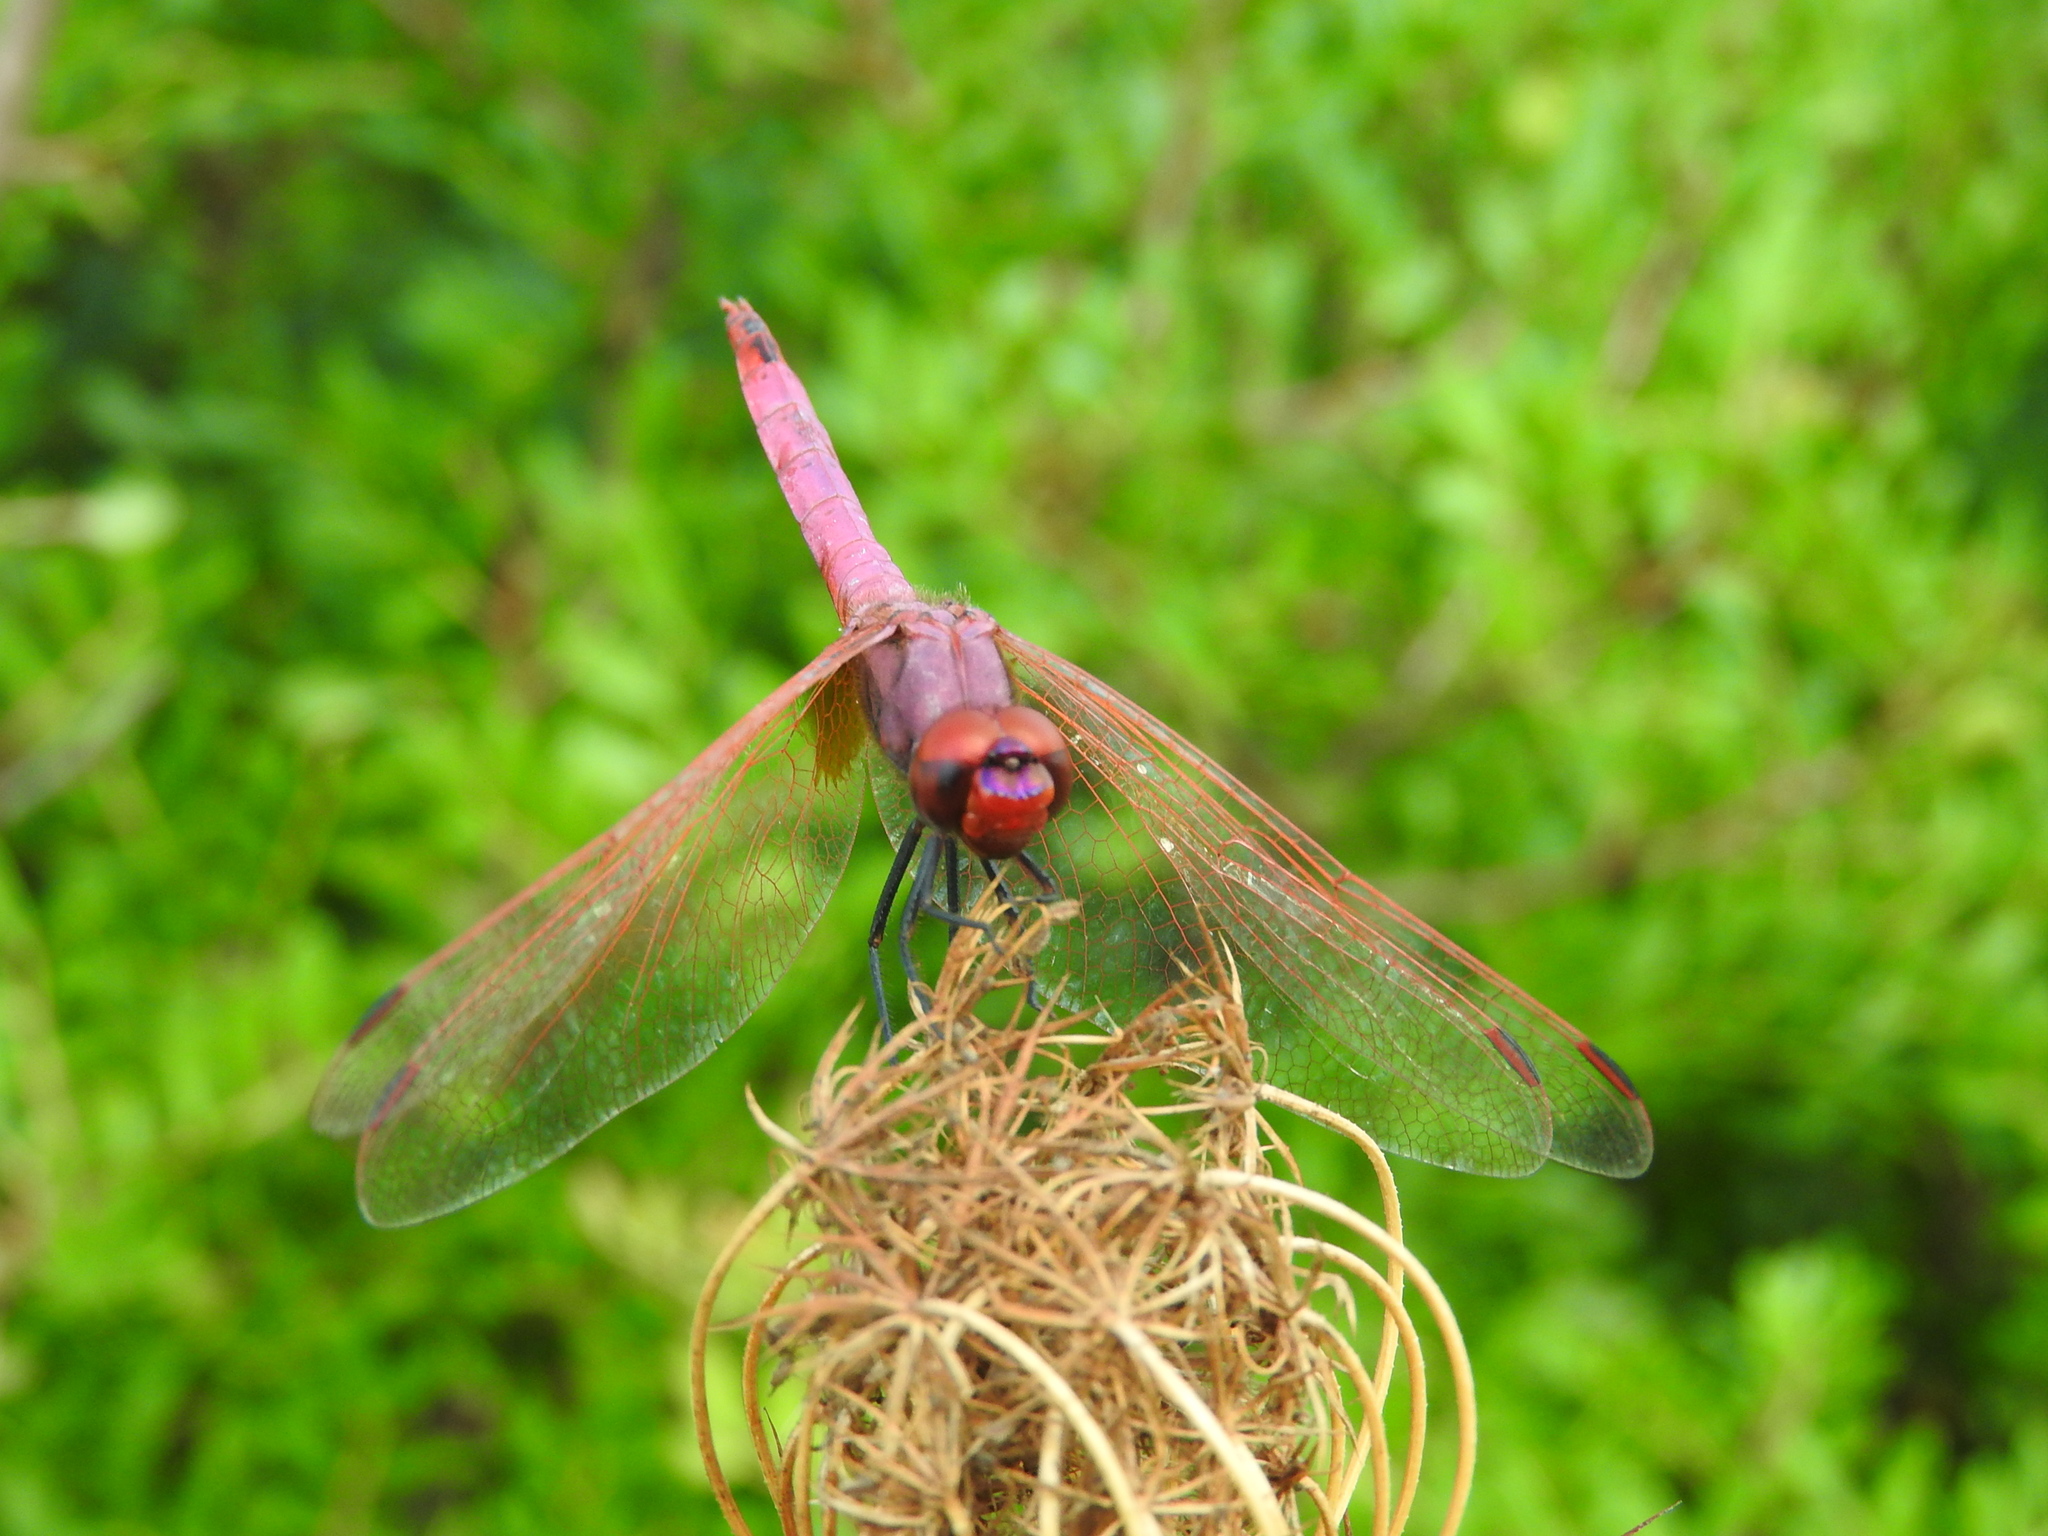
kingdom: Animalia
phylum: Arthropoda
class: Insecta
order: Odonata
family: Libellulidae
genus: Trithemis
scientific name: Trithemis annulata
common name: Violet dropwing
